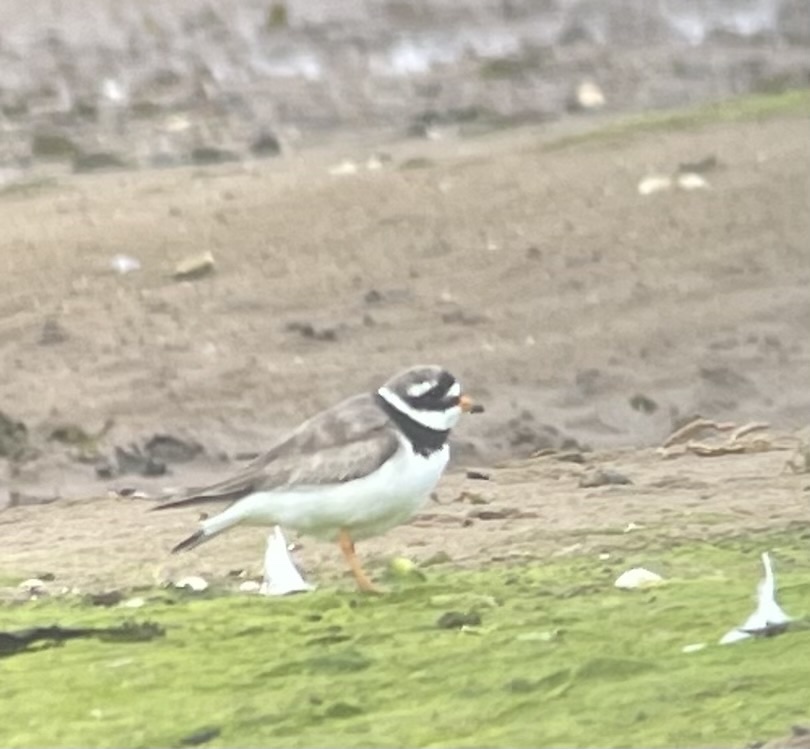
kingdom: Animalia
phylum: Chordata
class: Aves
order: Charadriiformes
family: Charadriidae
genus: Charadrius
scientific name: Charadrius hiaticula
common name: Common ringed plover
